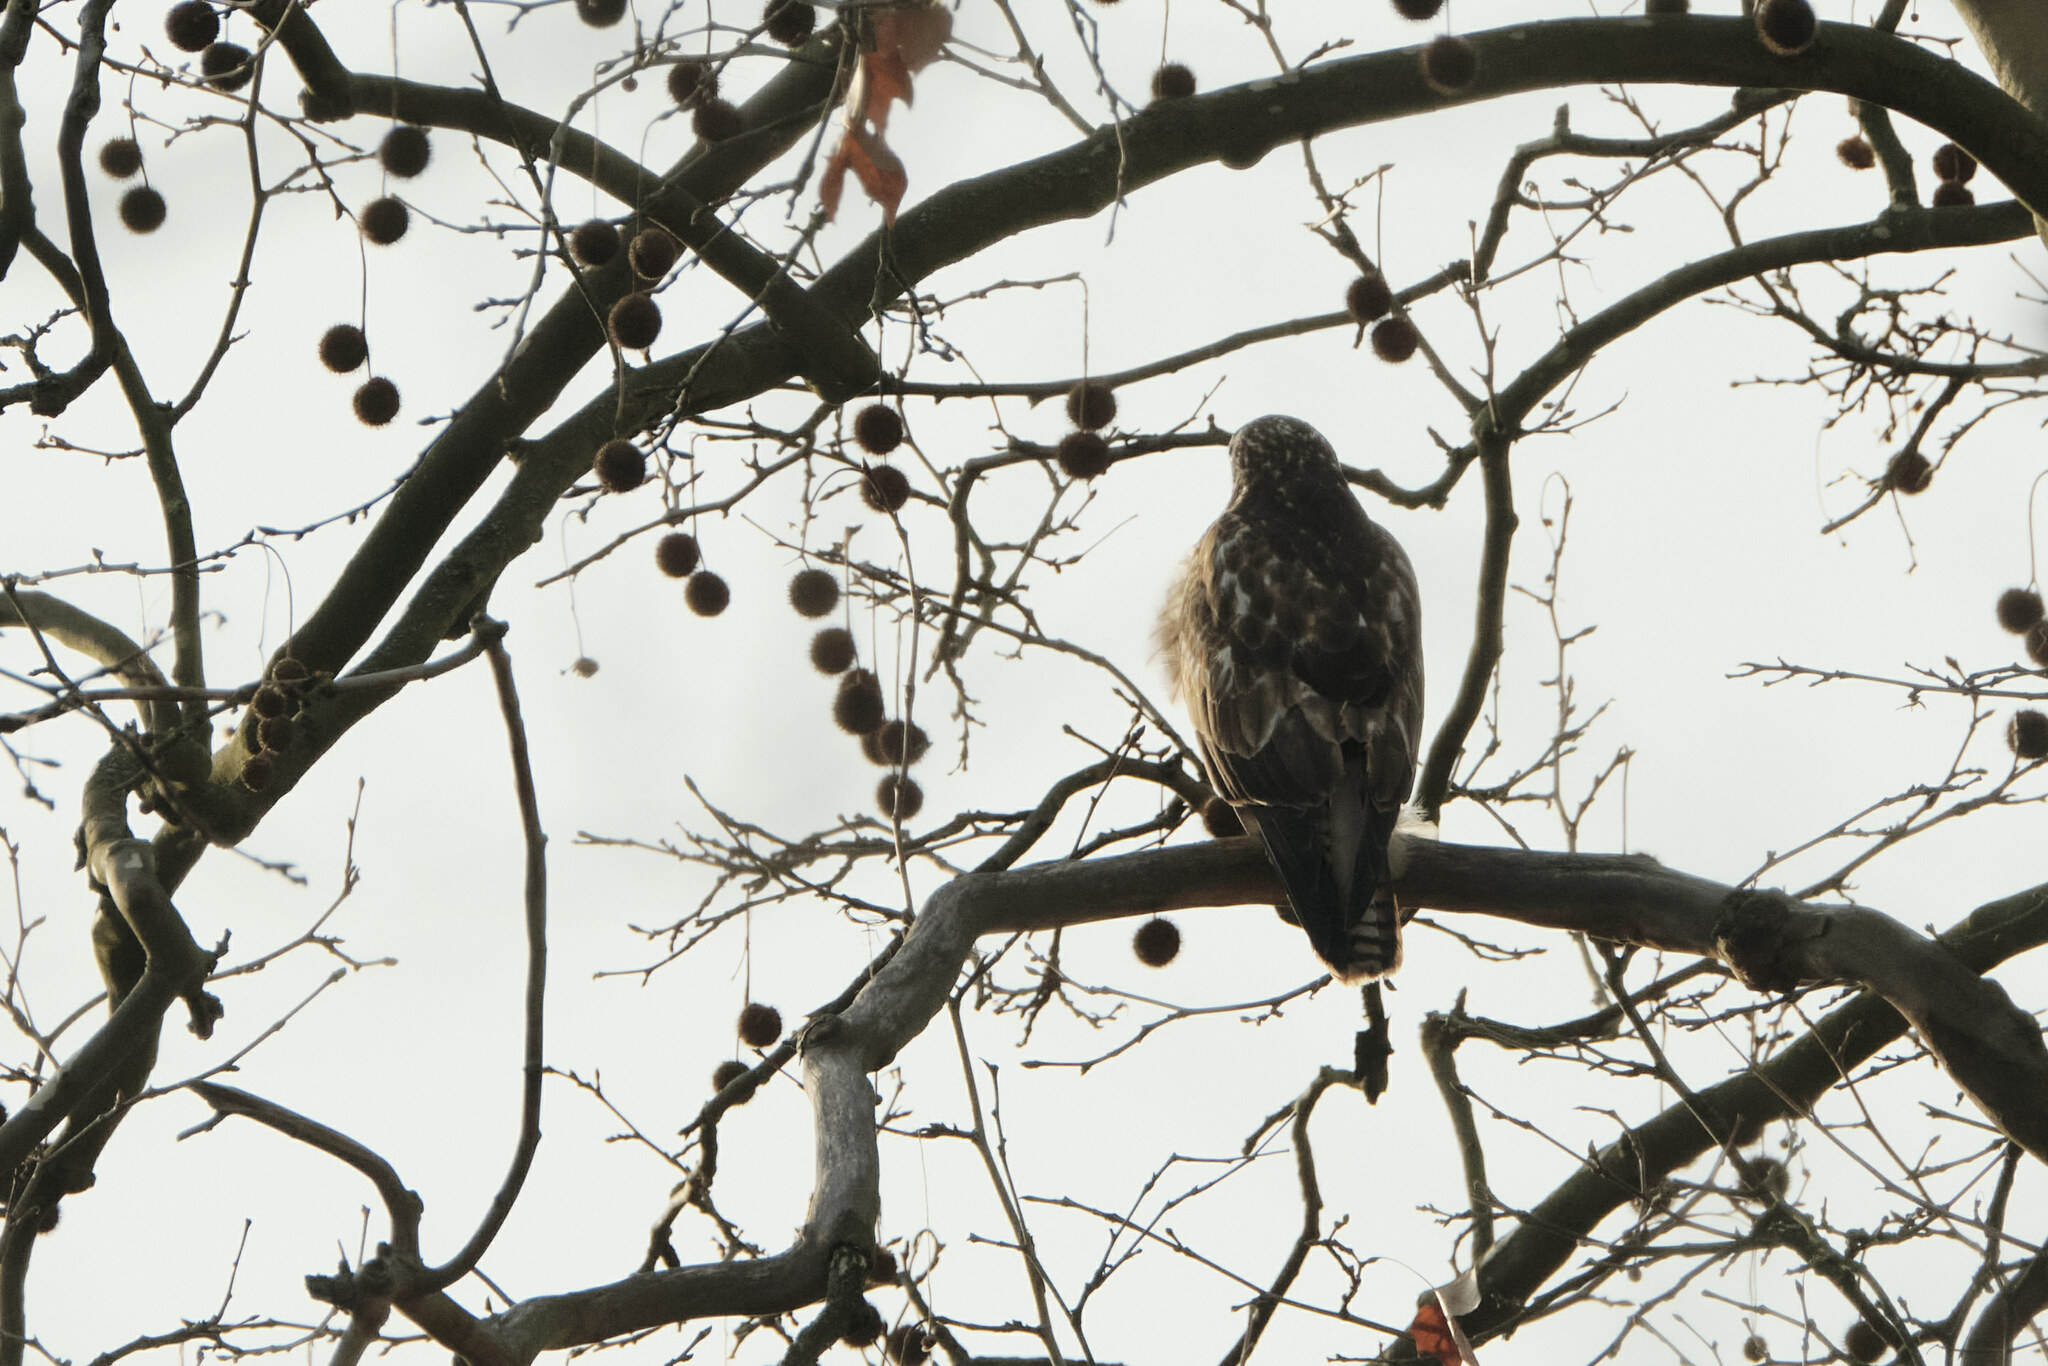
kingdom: Animalia
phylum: Chordata
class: Aves
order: Accipitriformes
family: Accipitridae
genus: Buteo
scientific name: Buteo buteo
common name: Common buzzard
